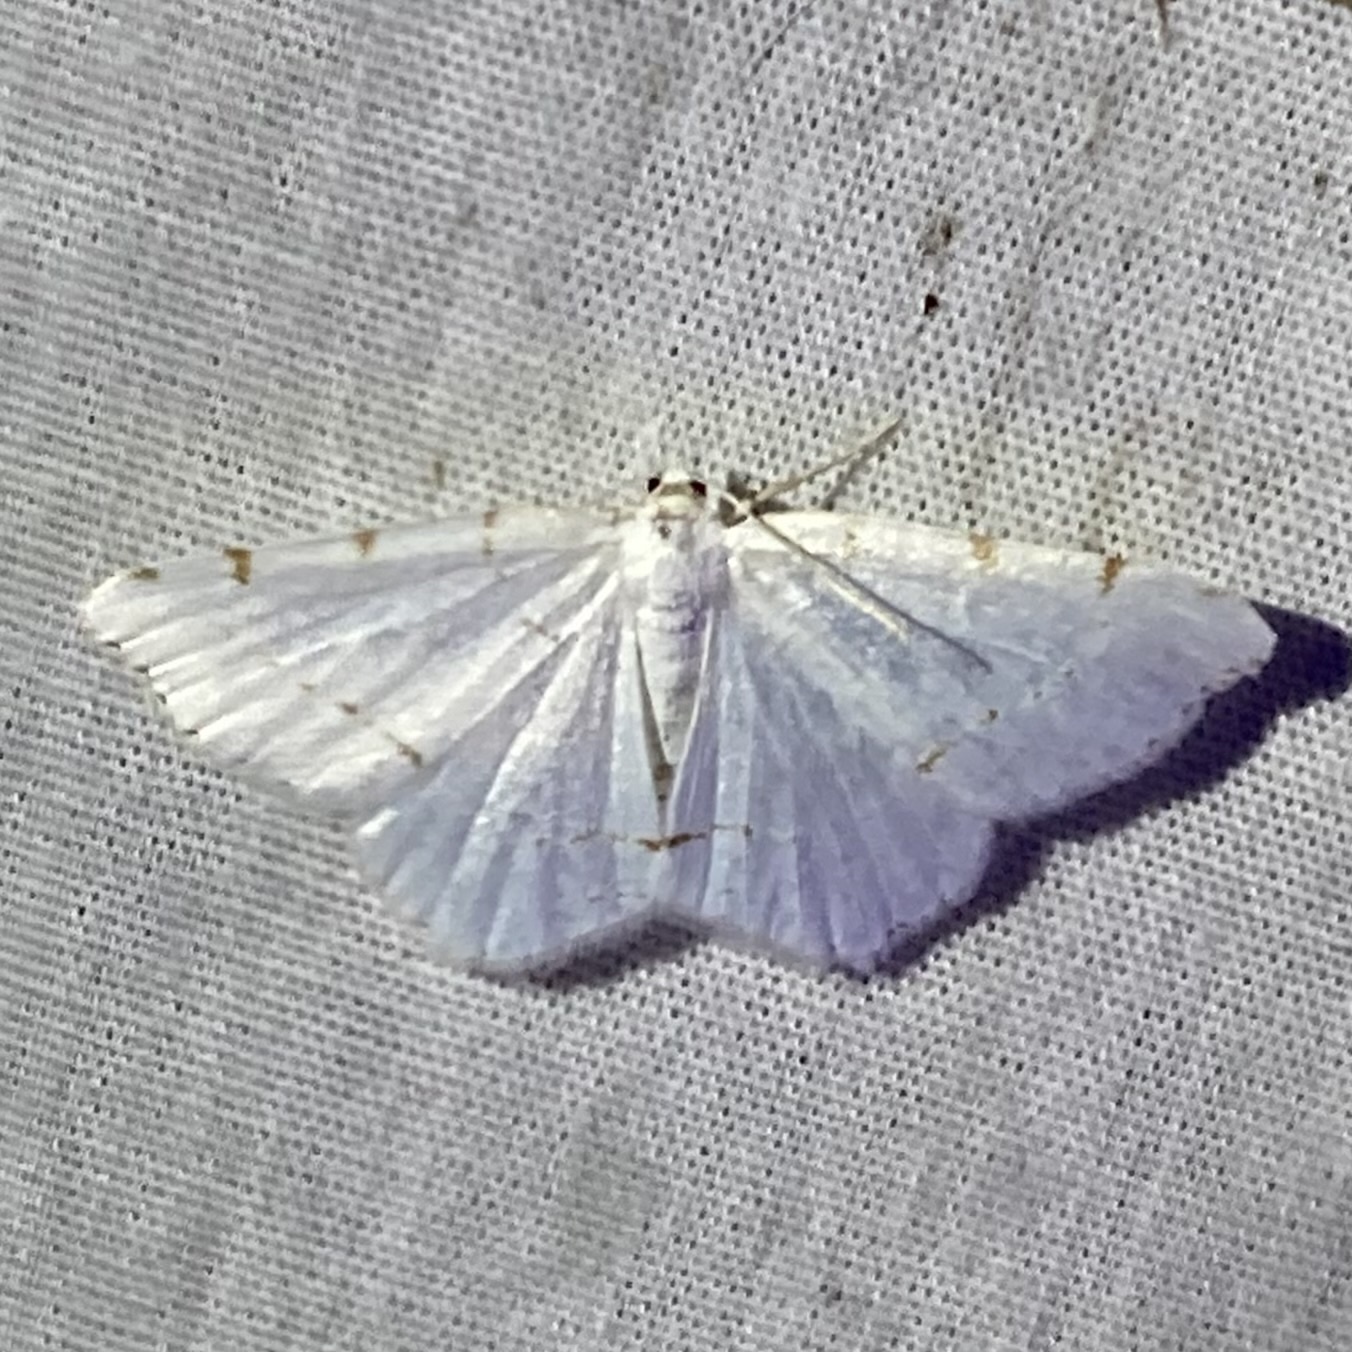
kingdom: Animalia
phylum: Arthropoda
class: Insecta
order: Lepidoptera
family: Geometridae
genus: Macaria
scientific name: Macaria pustularia
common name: Lesser maple spanworm moth
